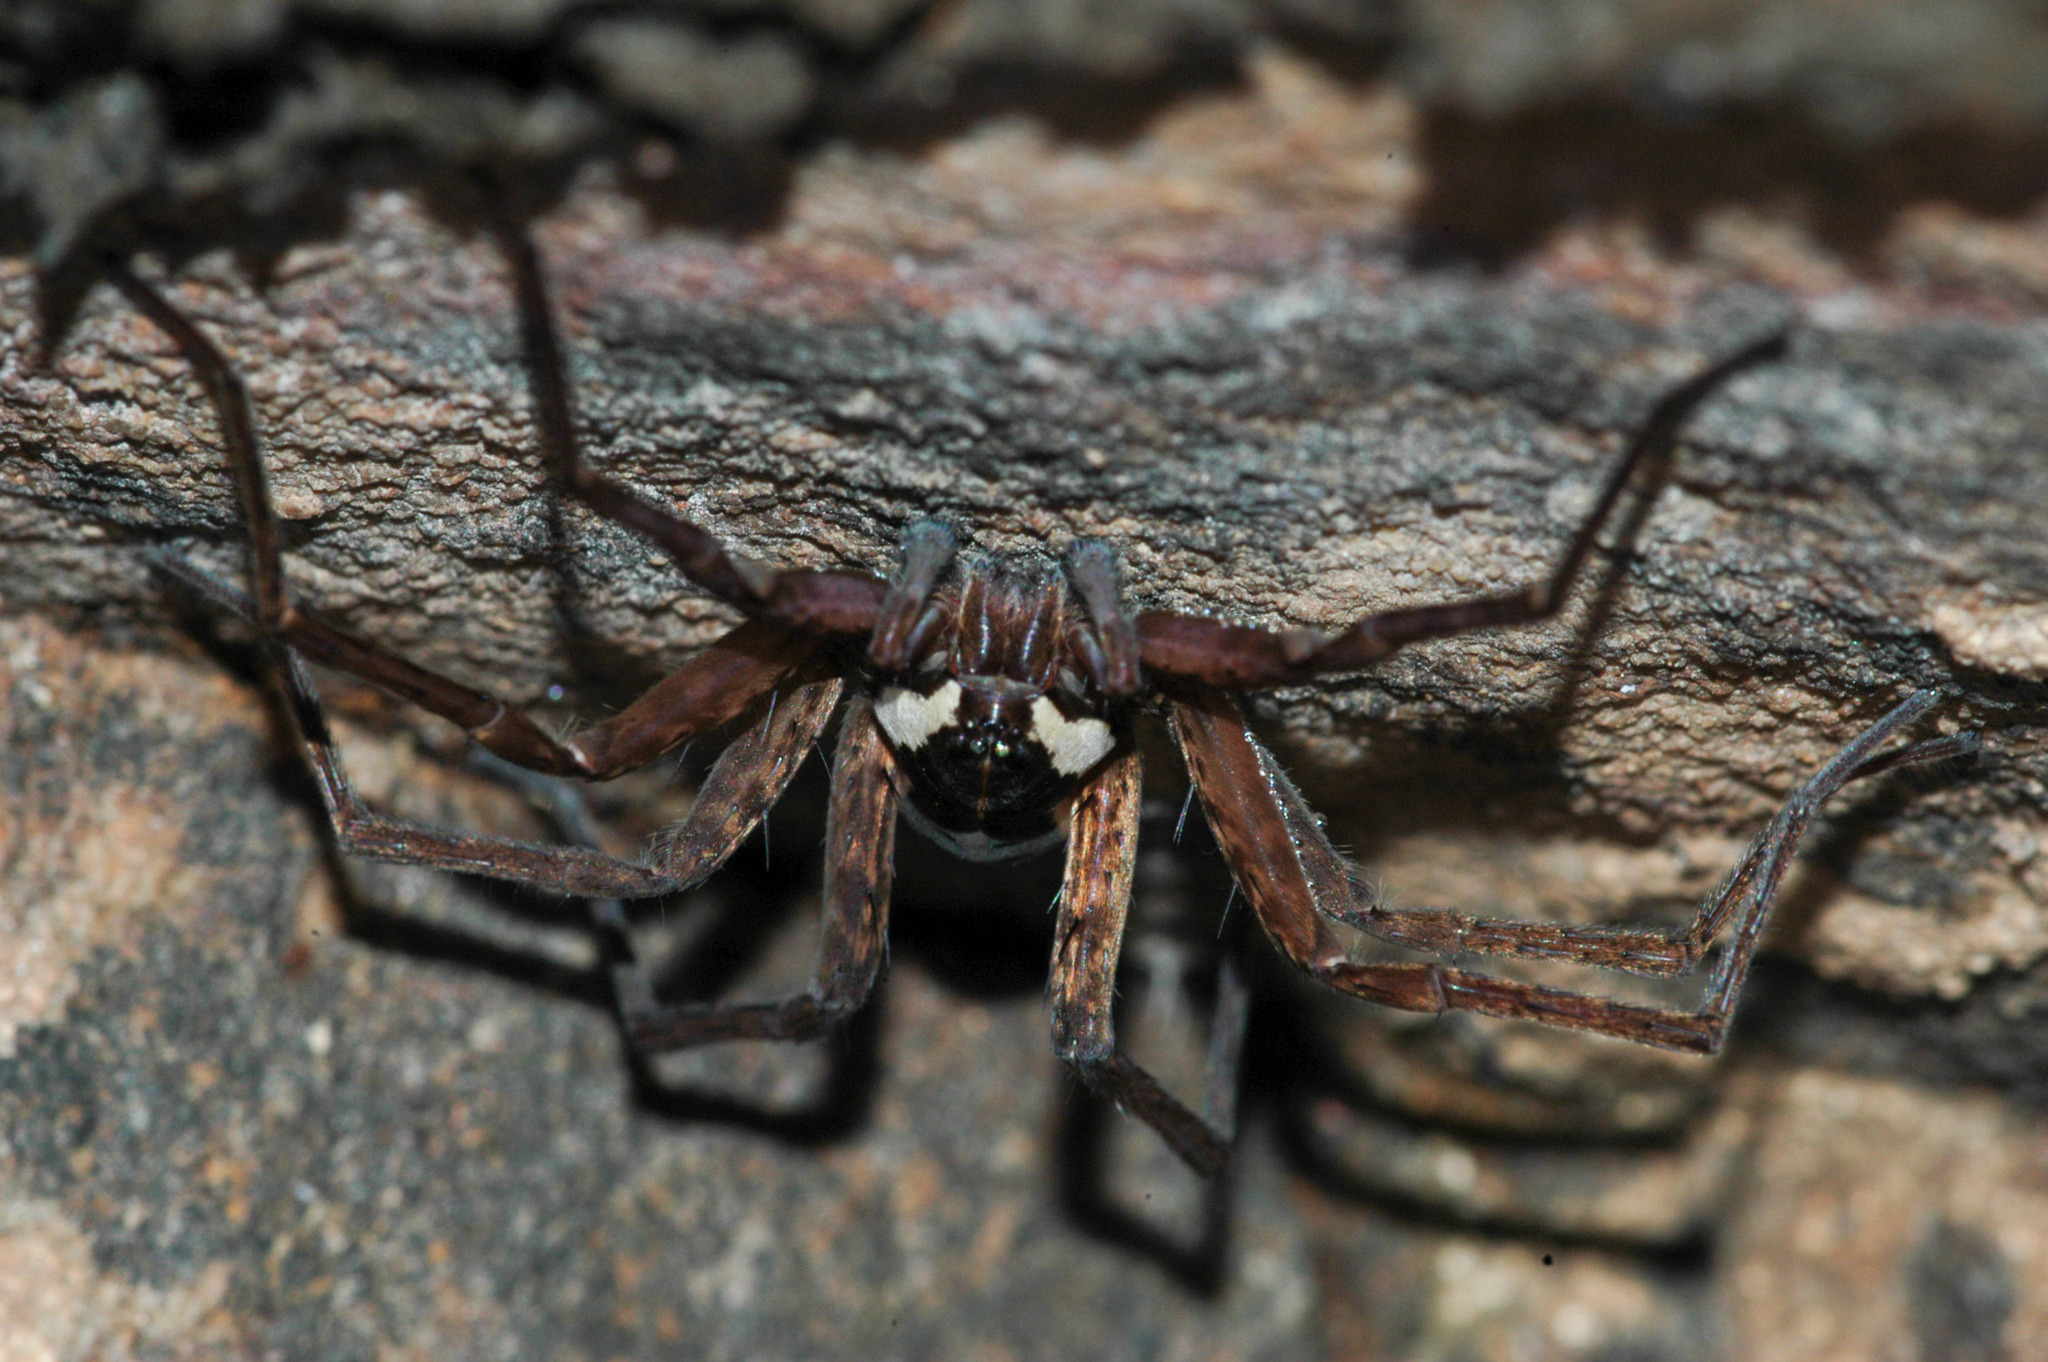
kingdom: Animalia
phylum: Arthropoda
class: Arachnida
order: Araneae
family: Pisauridae
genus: Dolomedes
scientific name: Dolomedes instabilis
